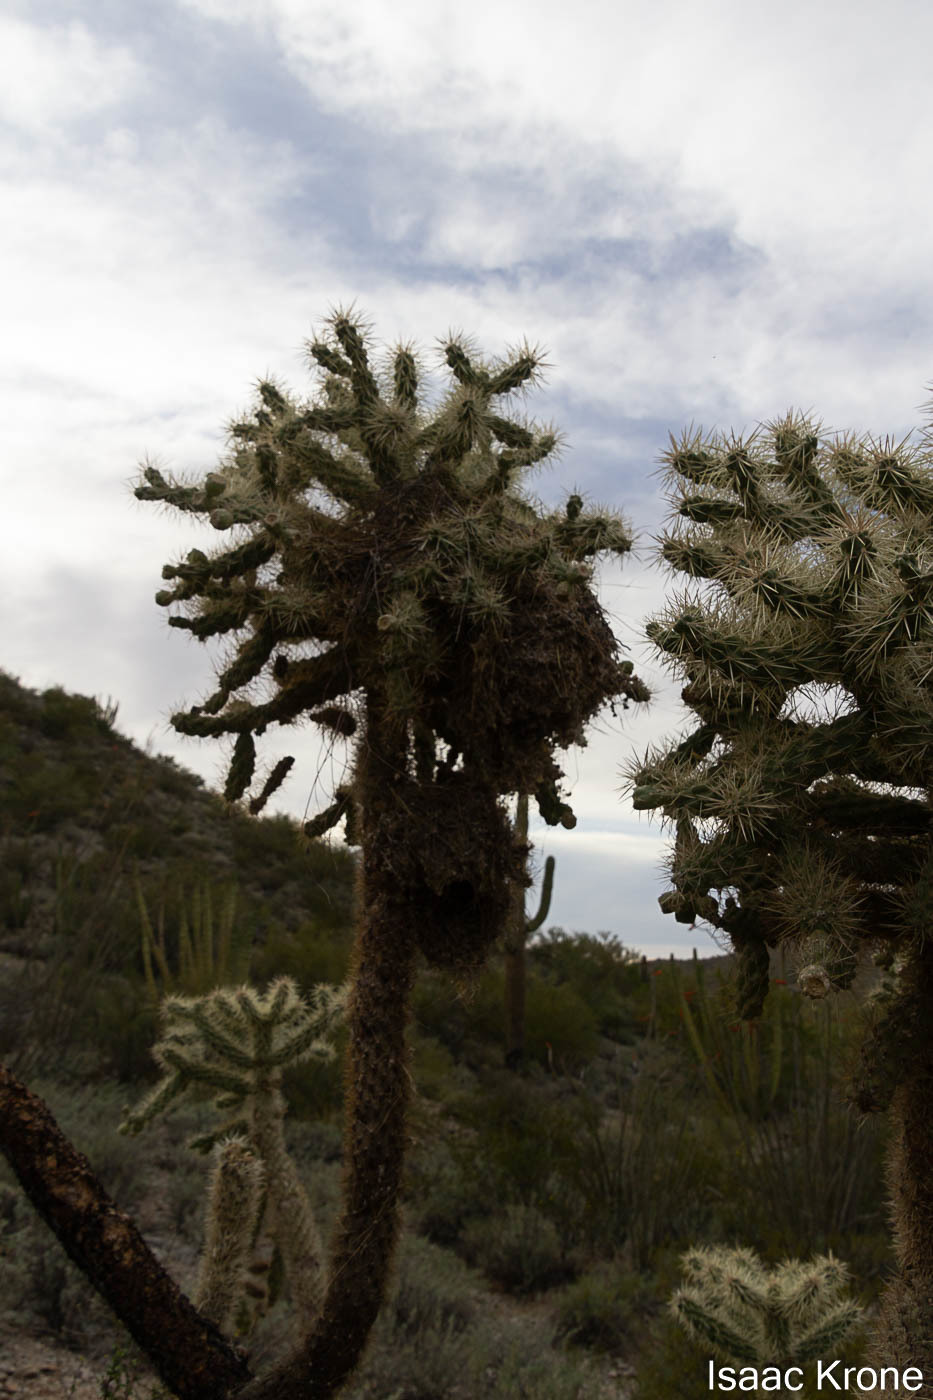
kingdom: Plantae
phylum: Tracheophyta
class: Magnoliopsida
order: Caryophyllales
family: Cactaceae
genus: Cylindropuntia
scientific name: Cylindropuntia fulgida
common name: Jumping cholla
